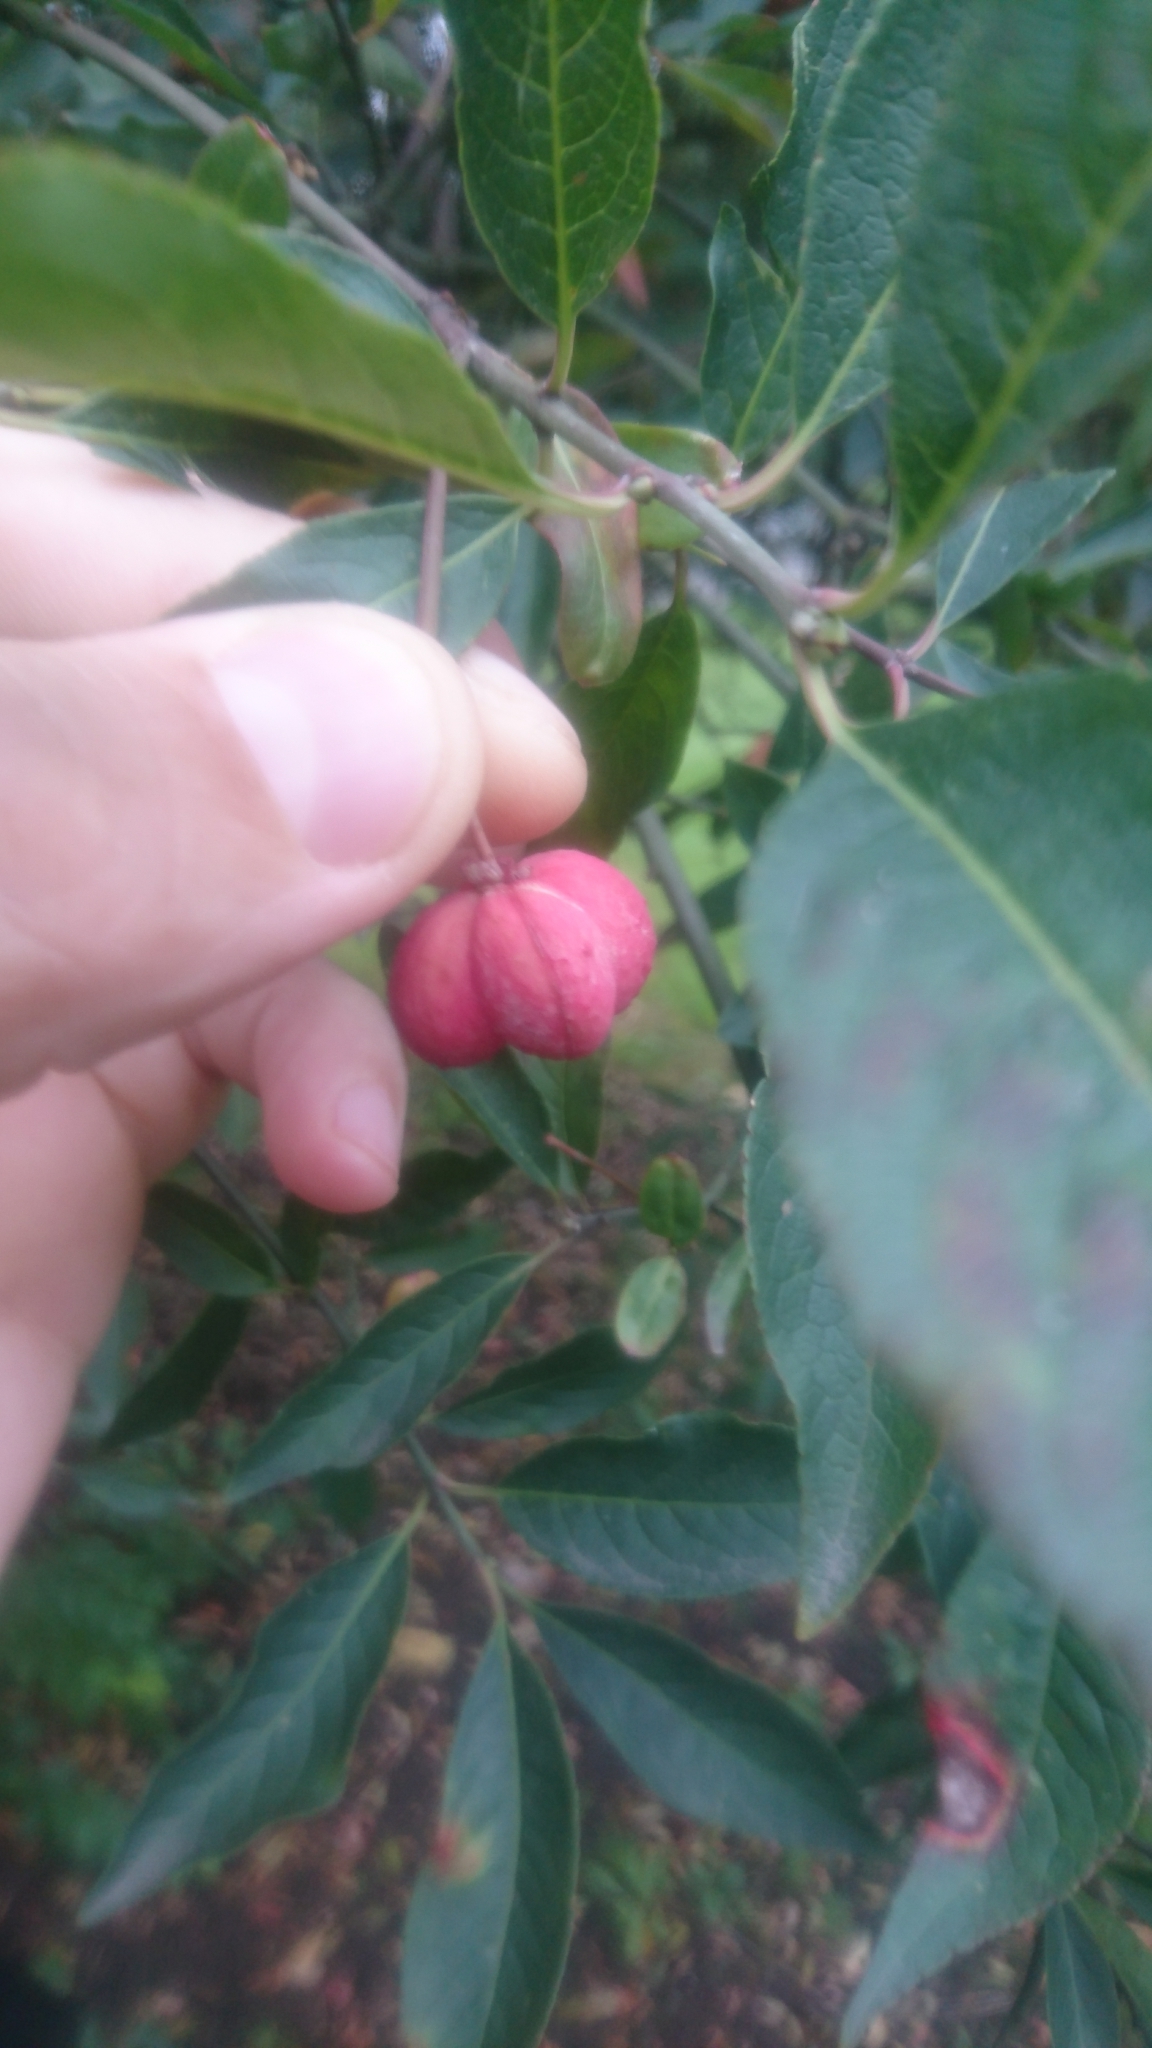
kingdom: Plantae
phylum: Tracheophyta
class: Magnoliopsida
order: Celastrales
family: Celastraceae
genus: Euonymus
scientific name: Euonymus europaeus
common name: Spindle
